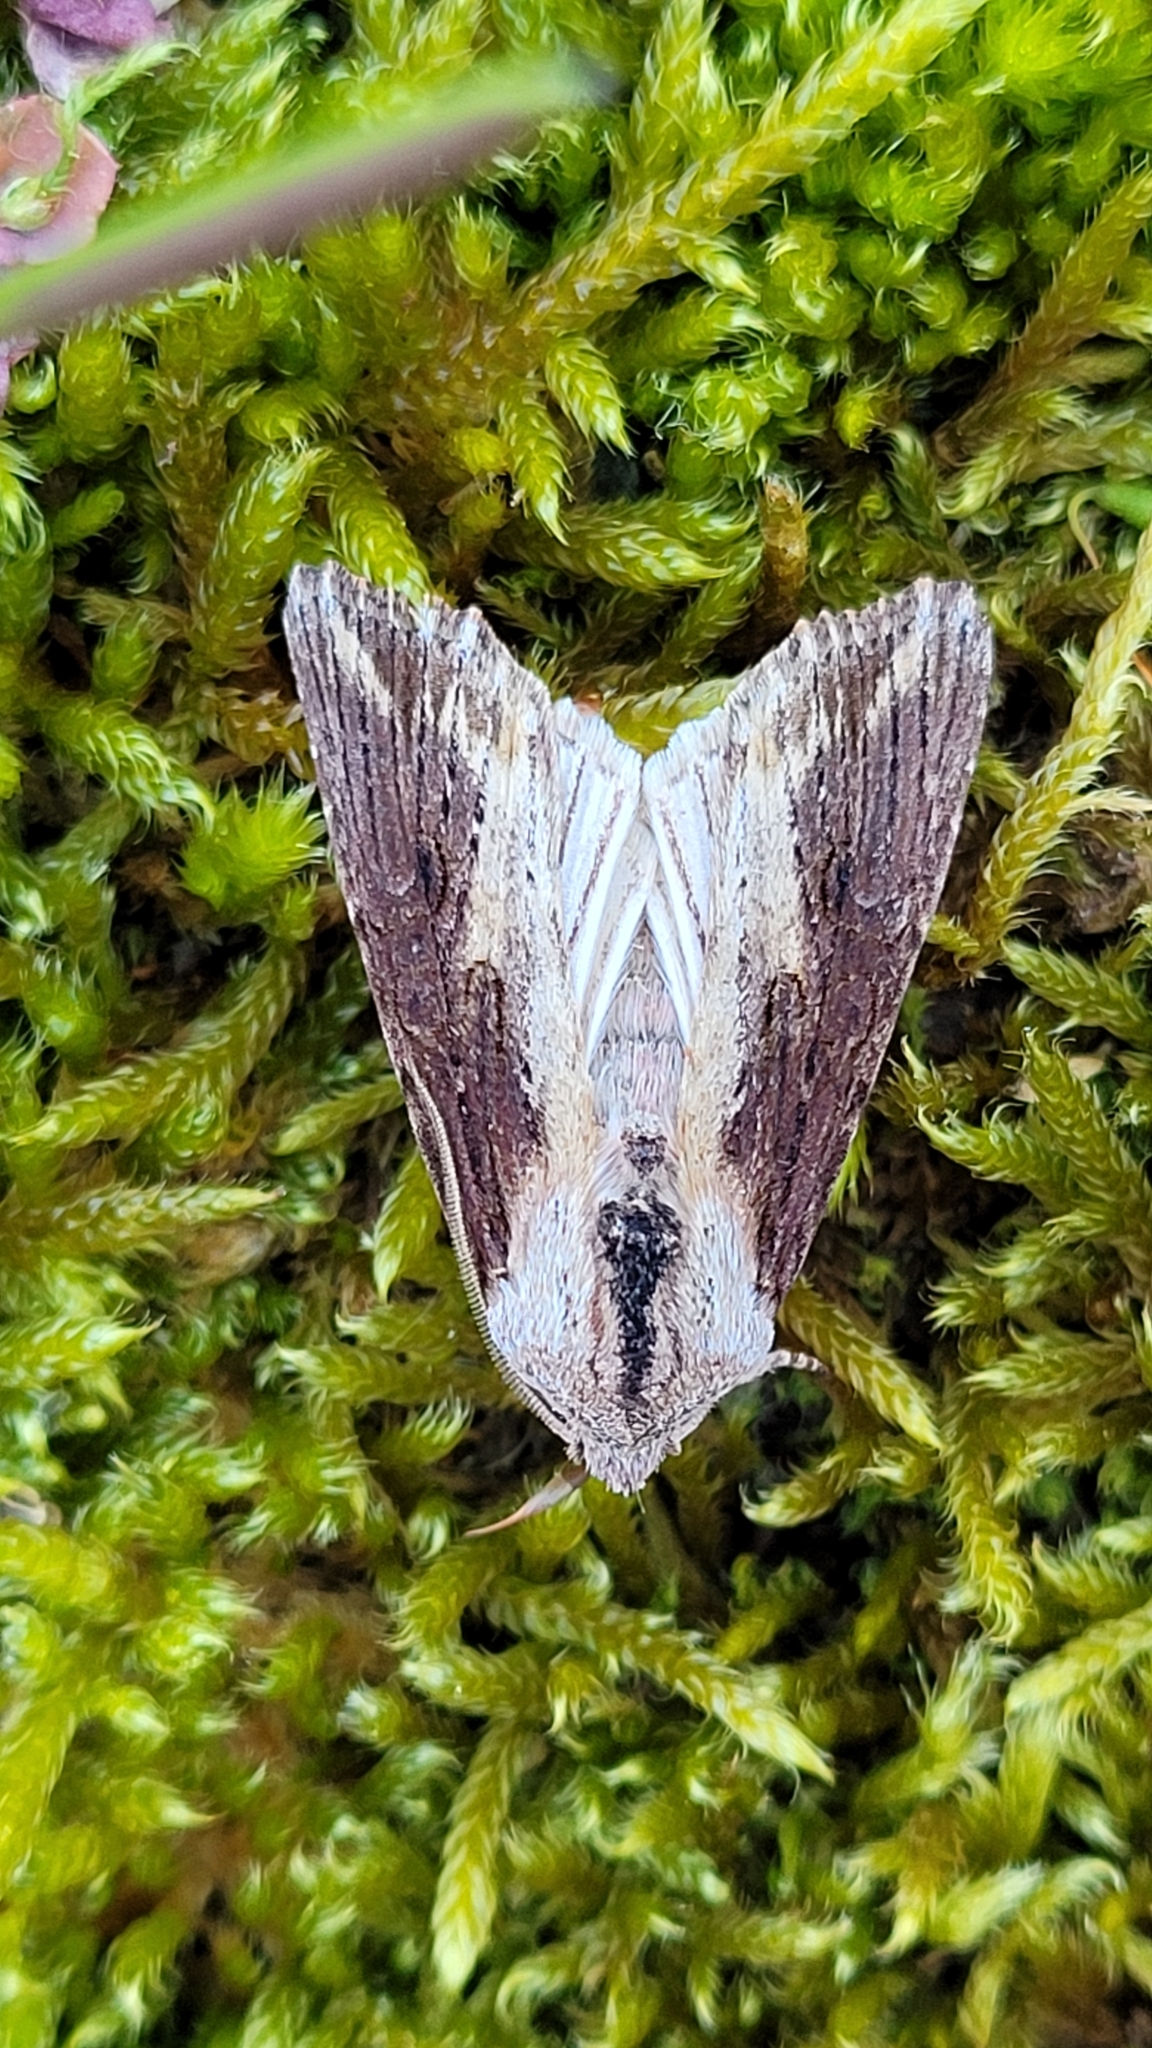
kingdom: Animalia
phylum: Arthropoda
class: Insecta
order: Lepidoptera
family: Noctuidae
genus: Egira
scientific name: Egira conspicillaris
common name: Silver cloud
